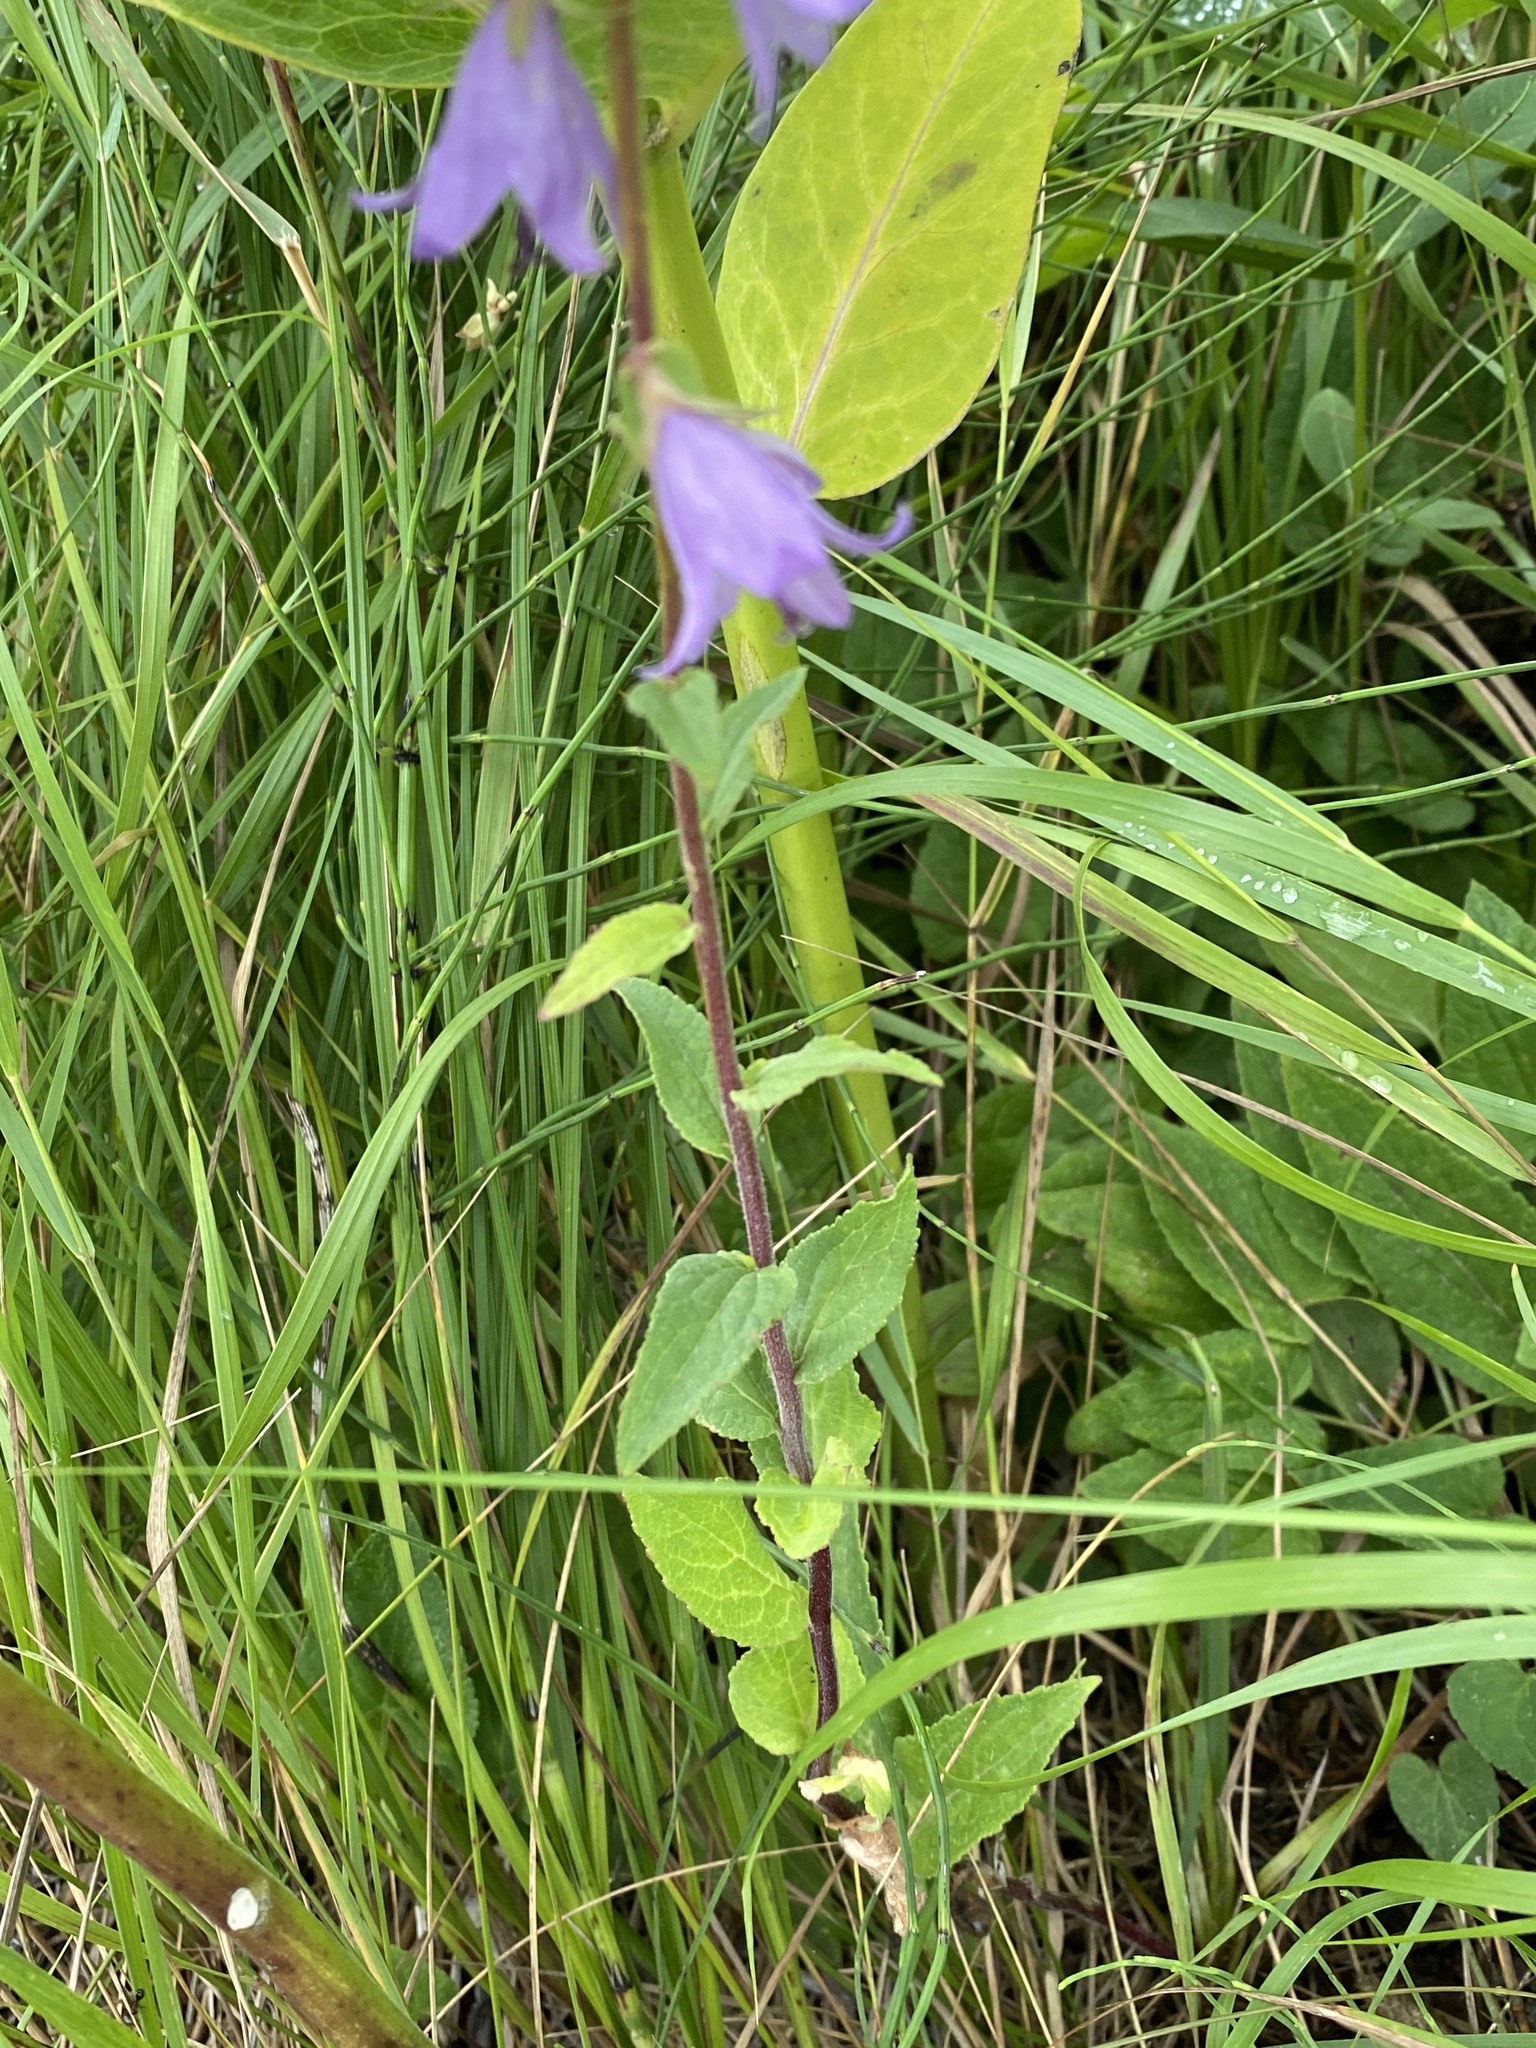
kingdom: Plantae
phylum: Tracheophyta
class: Magnoliopsida
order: Asterales
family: Campanulaceae
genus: Campanula
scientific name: Campanula rapunculoides
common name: Creeping bellflower
